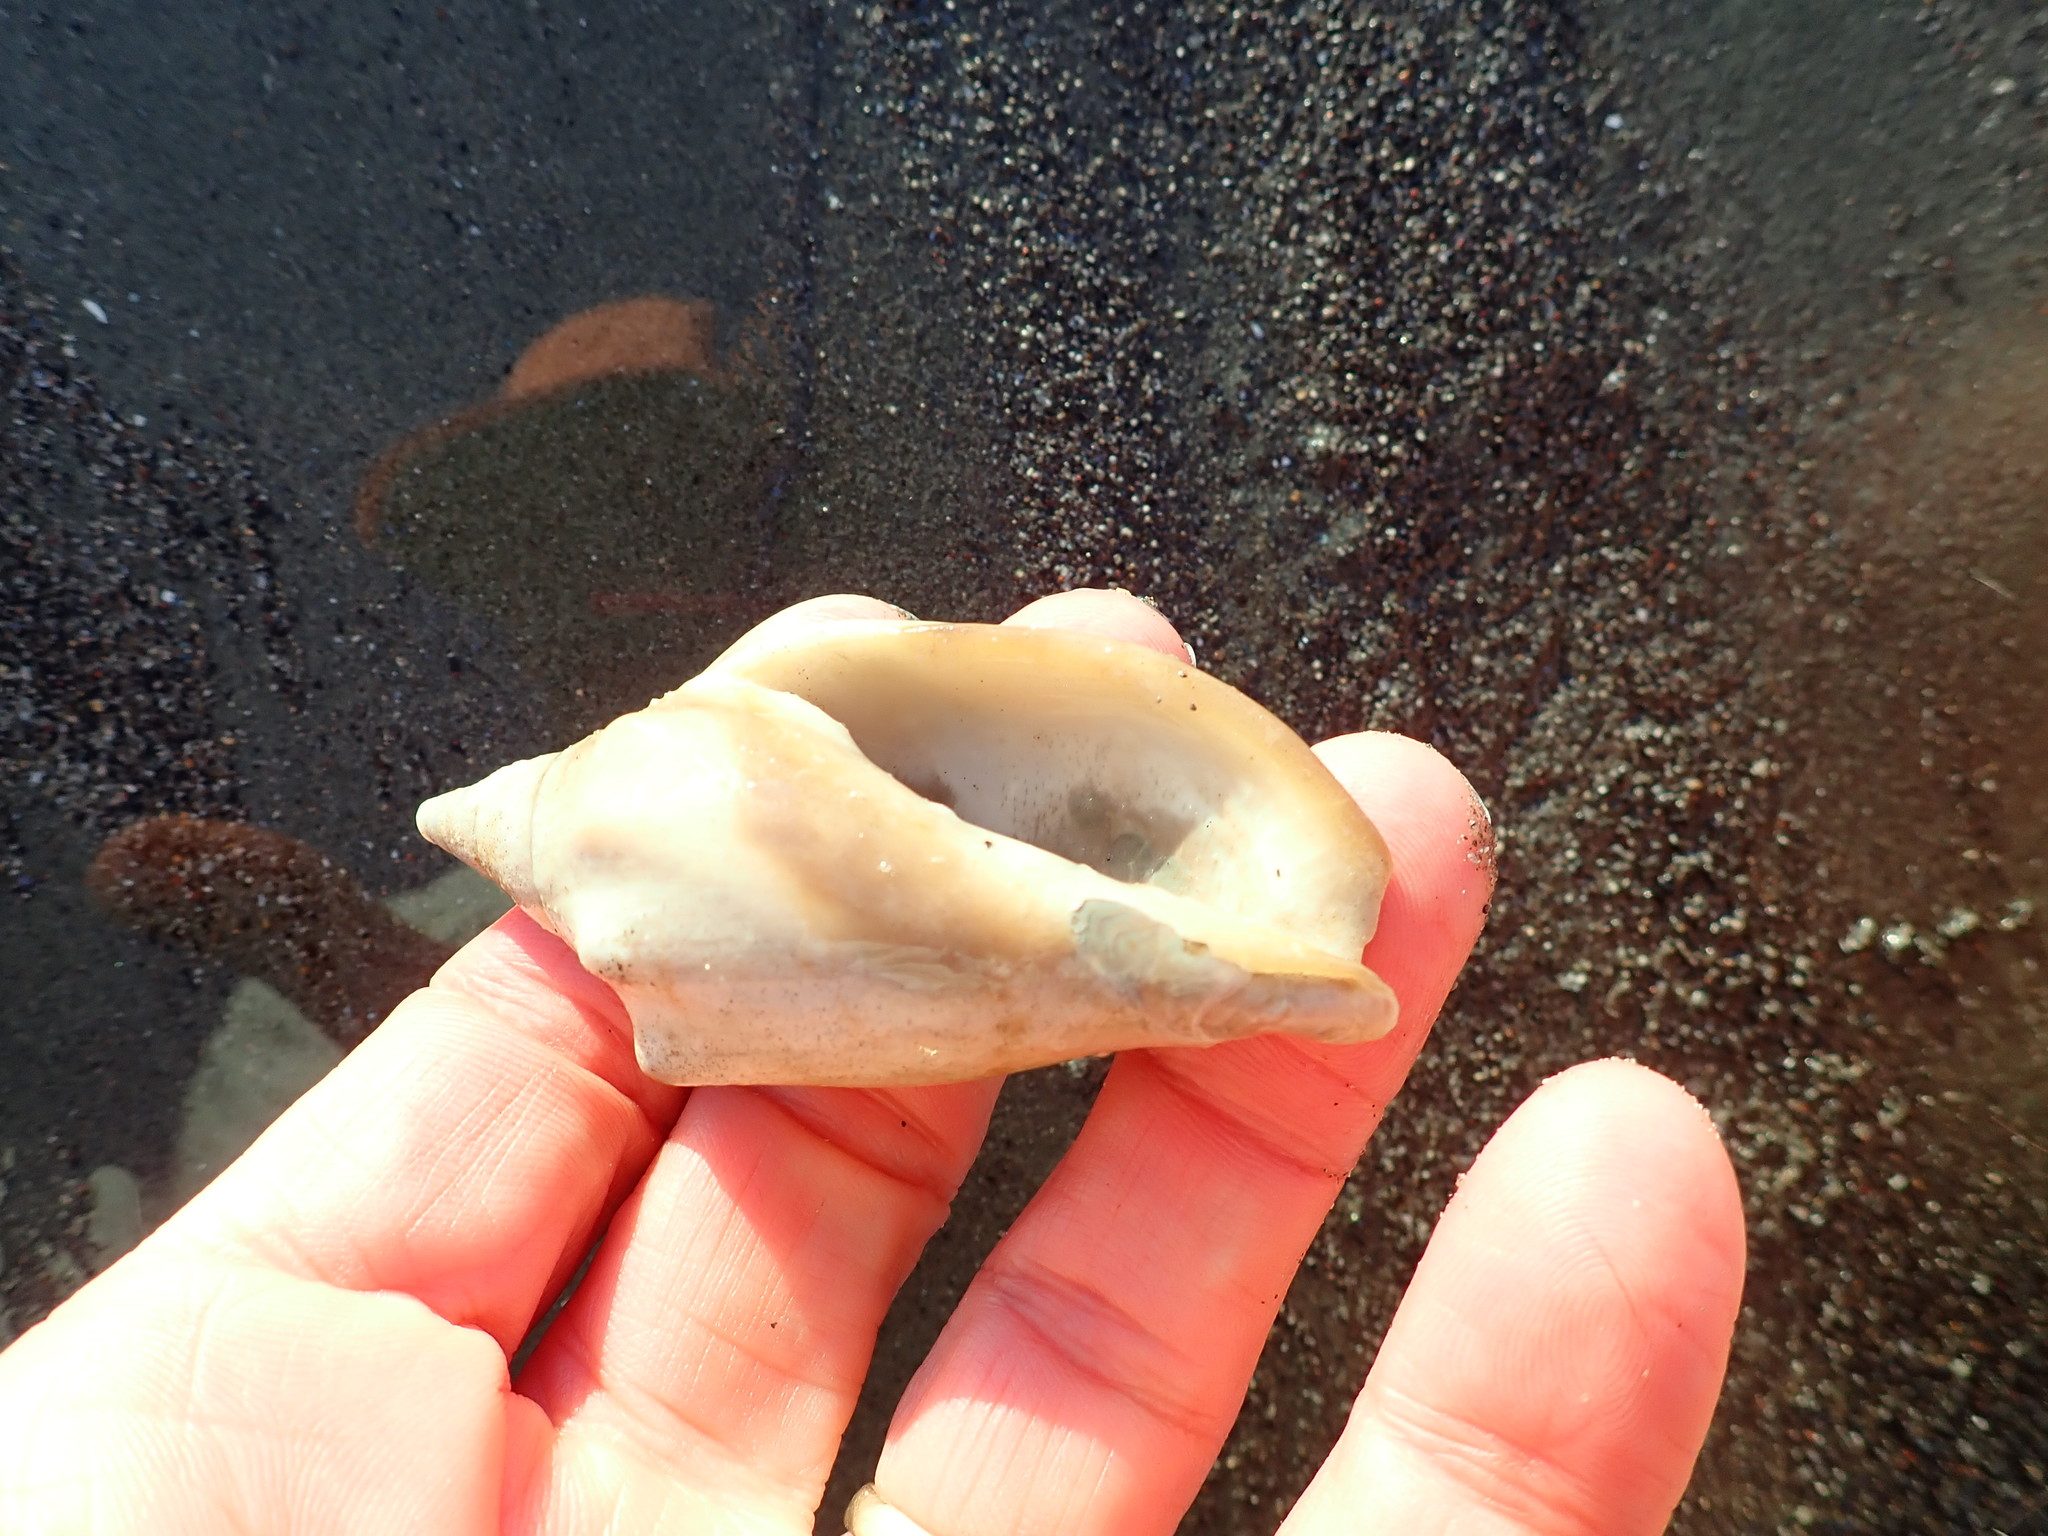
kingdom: Animalia
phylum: Mollusca
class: Gastropoda
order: Neogastropoda
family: Volutidae
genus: Alcithoe
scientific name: Alcithoe arabica
